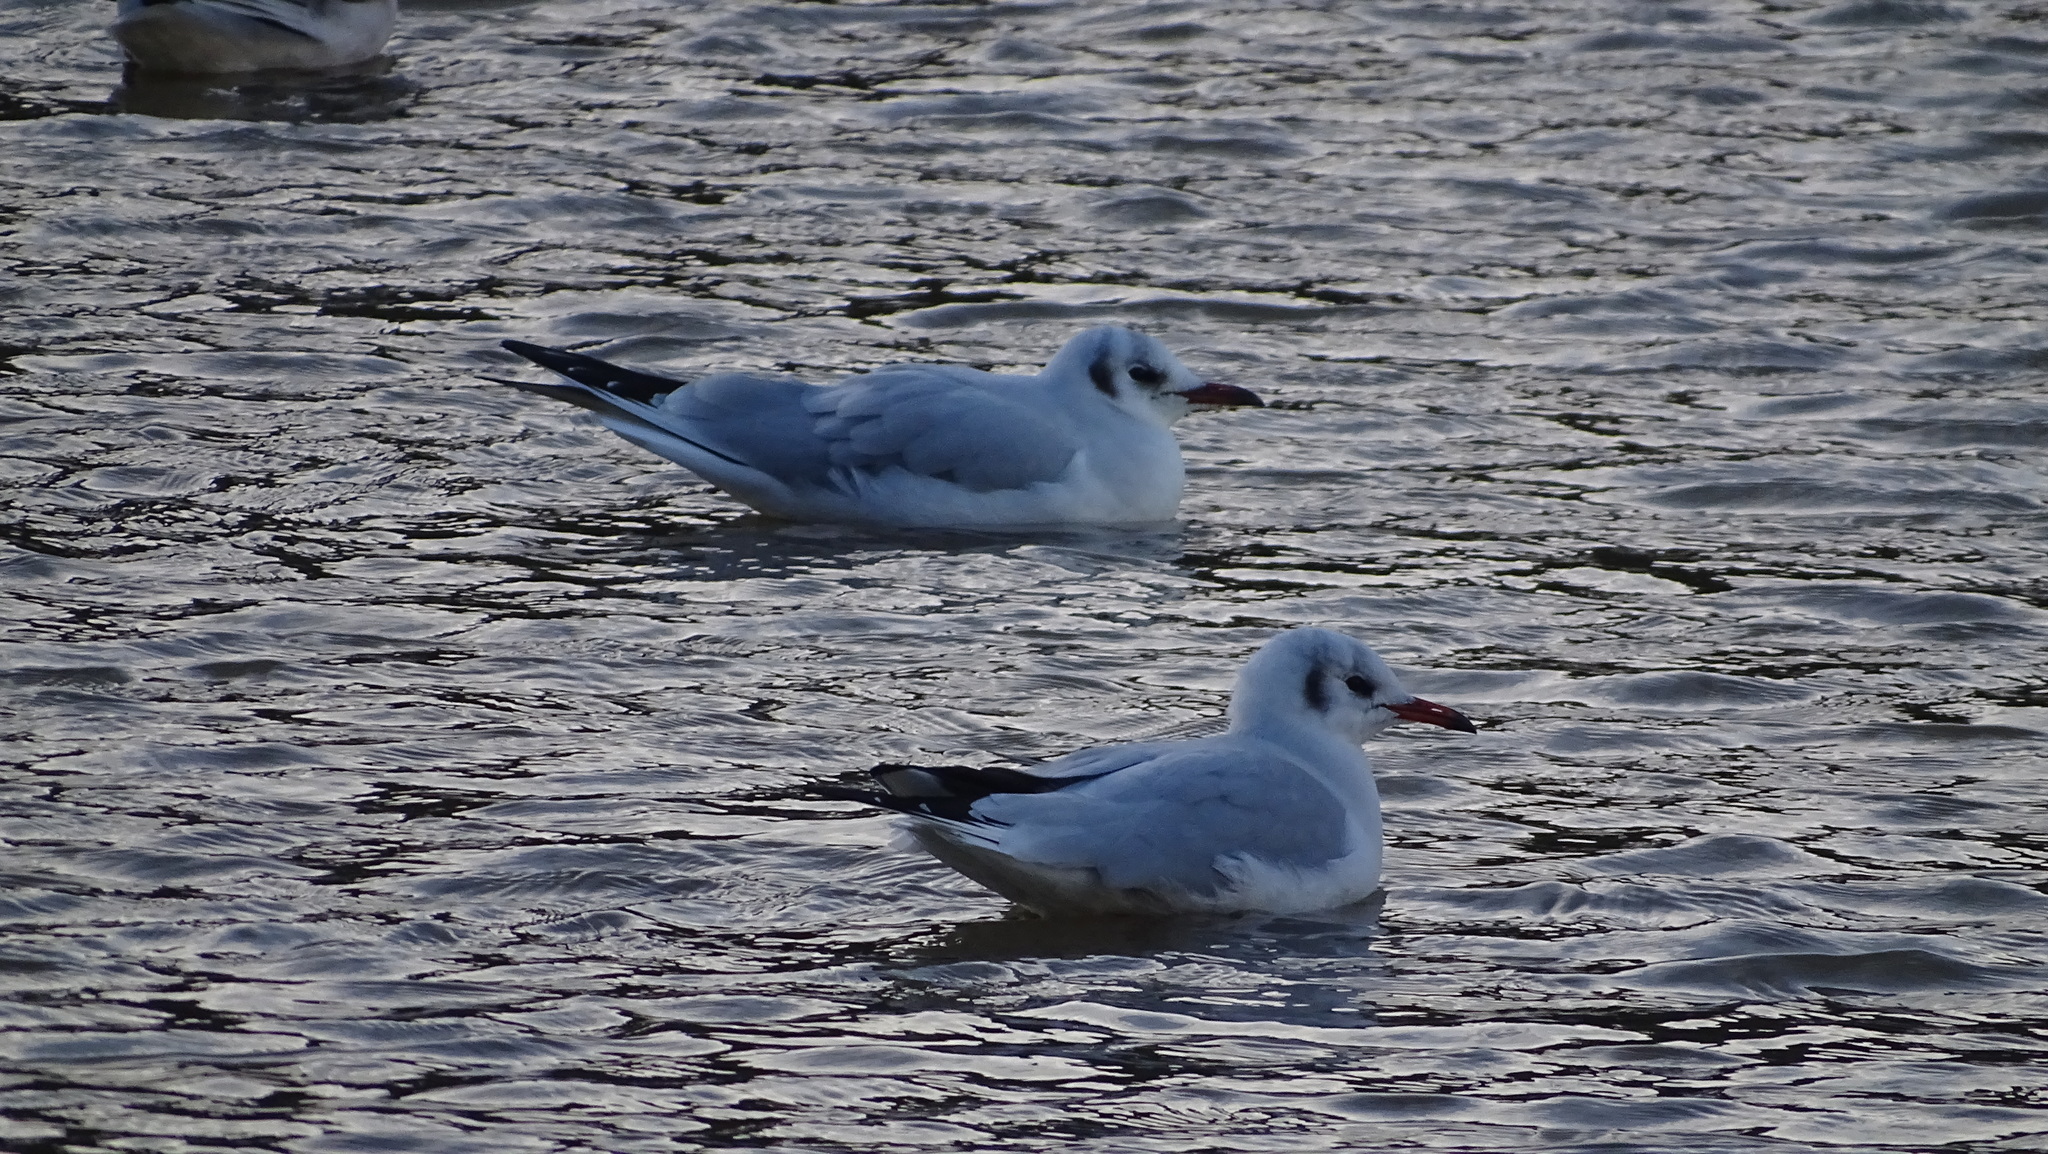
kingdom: Animalia
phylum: Chordata
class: Aves
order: Charadriiformes
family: Laridae
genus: Chroicocephalus
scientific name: Chroicocephalus ridibundus
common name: Black-headed gull
